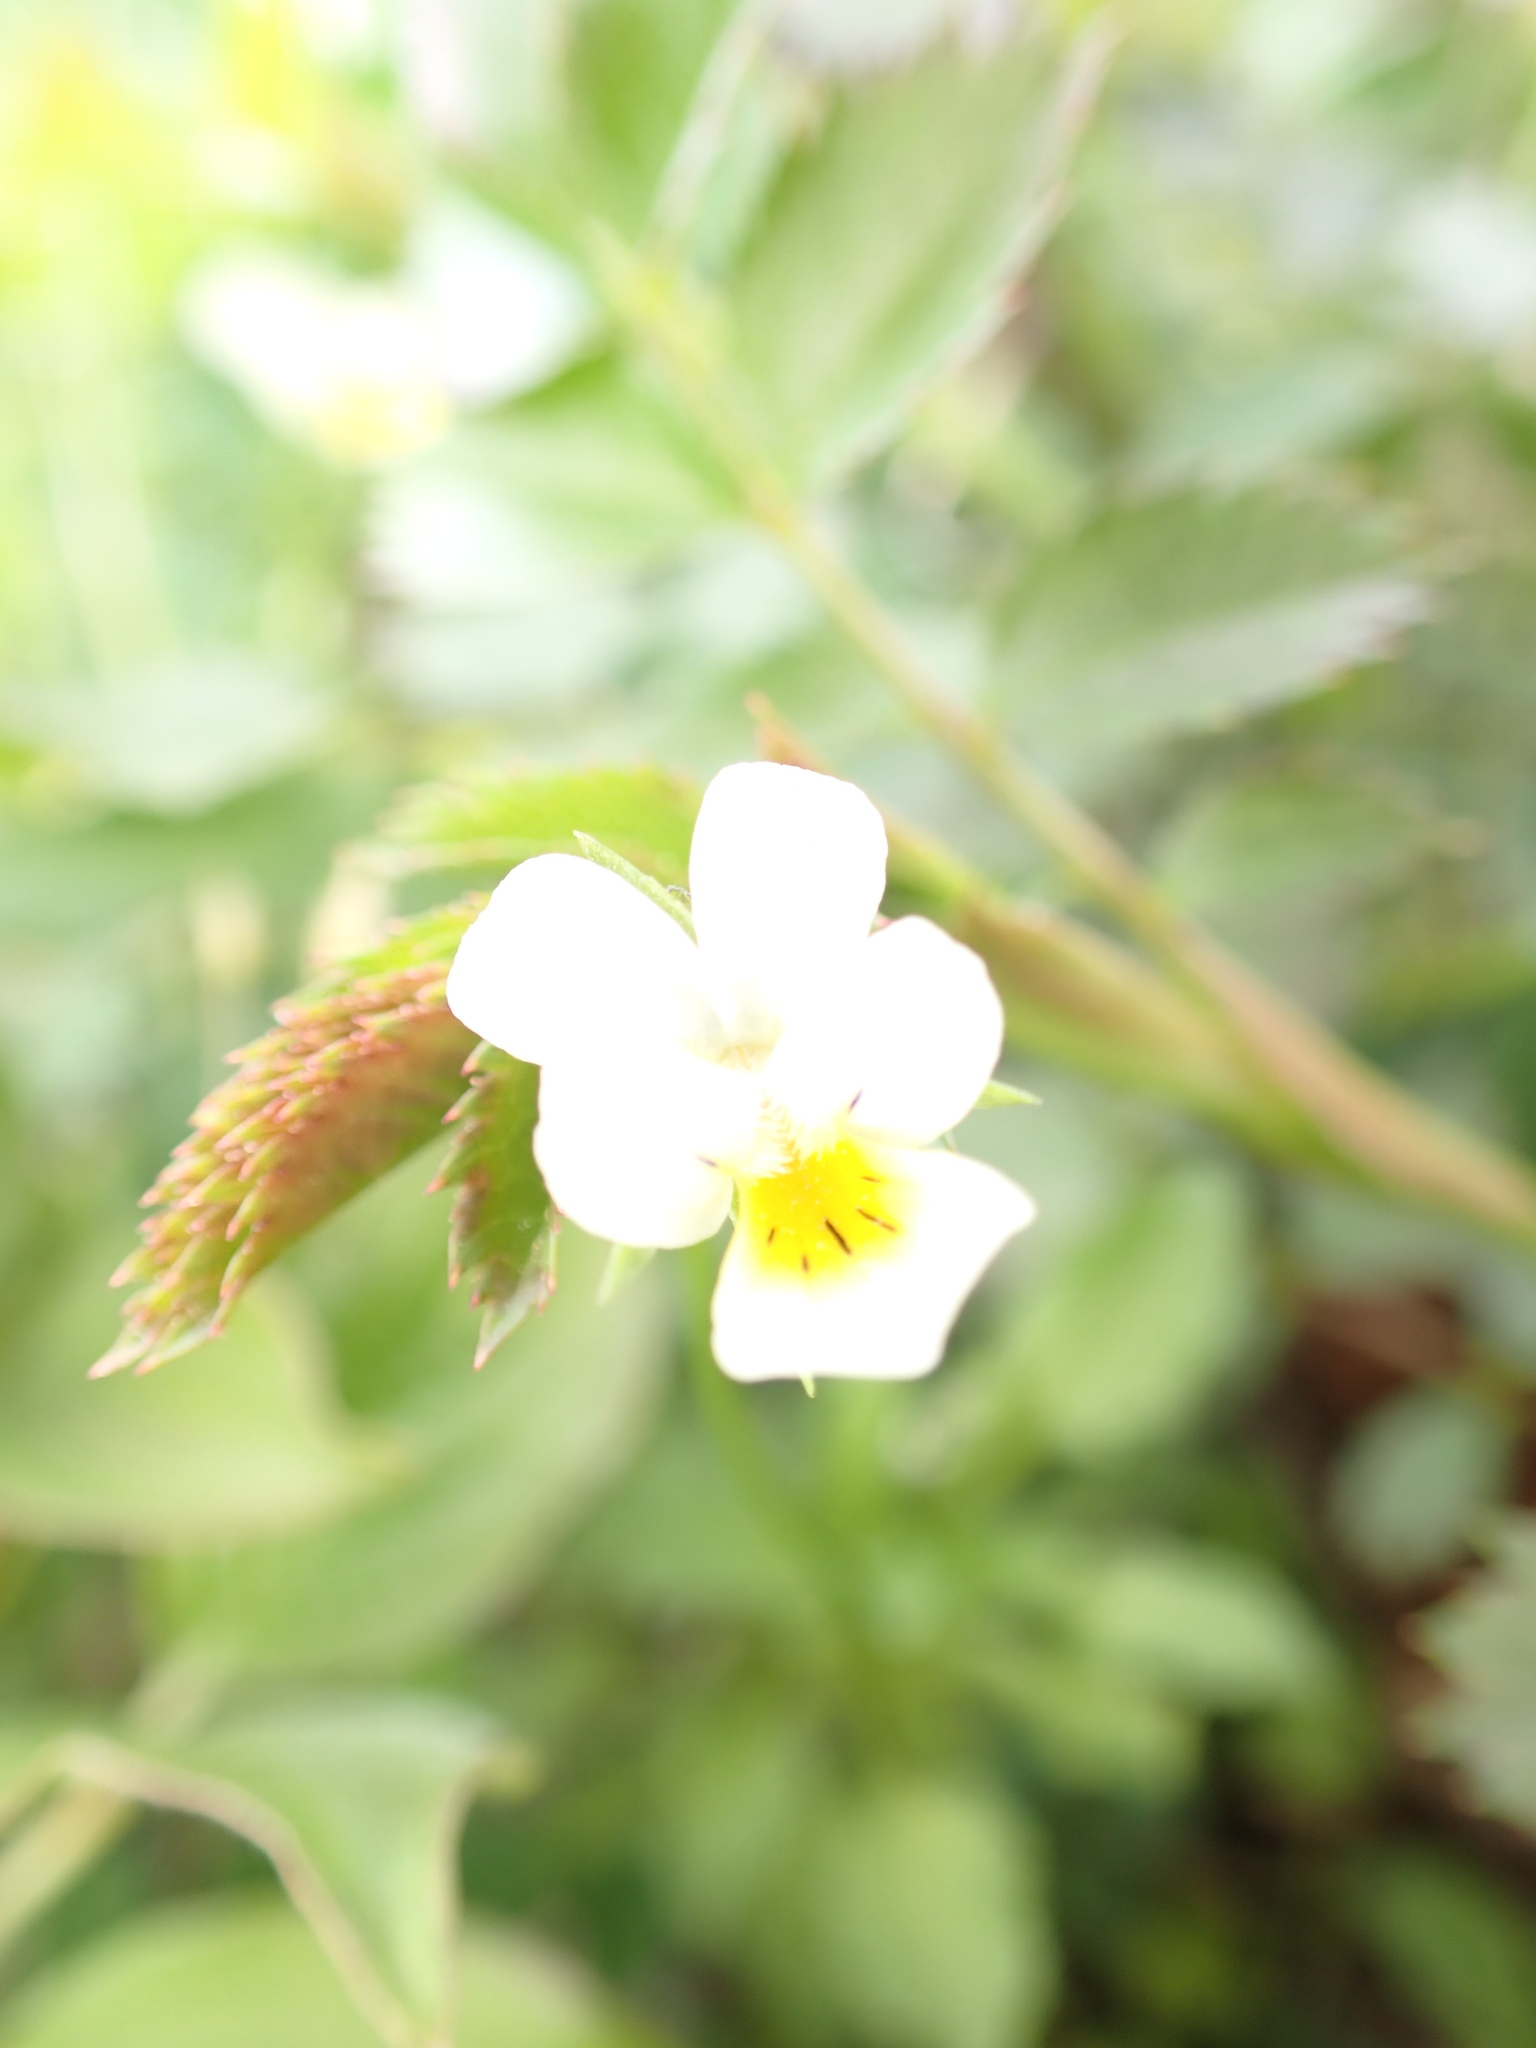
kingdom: Plantae
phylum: Tracheophyta
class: Magnoliopsida
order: Malpighiales
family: Violaceae
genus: Viola
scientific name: Viola arvensis
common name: Field pansy
